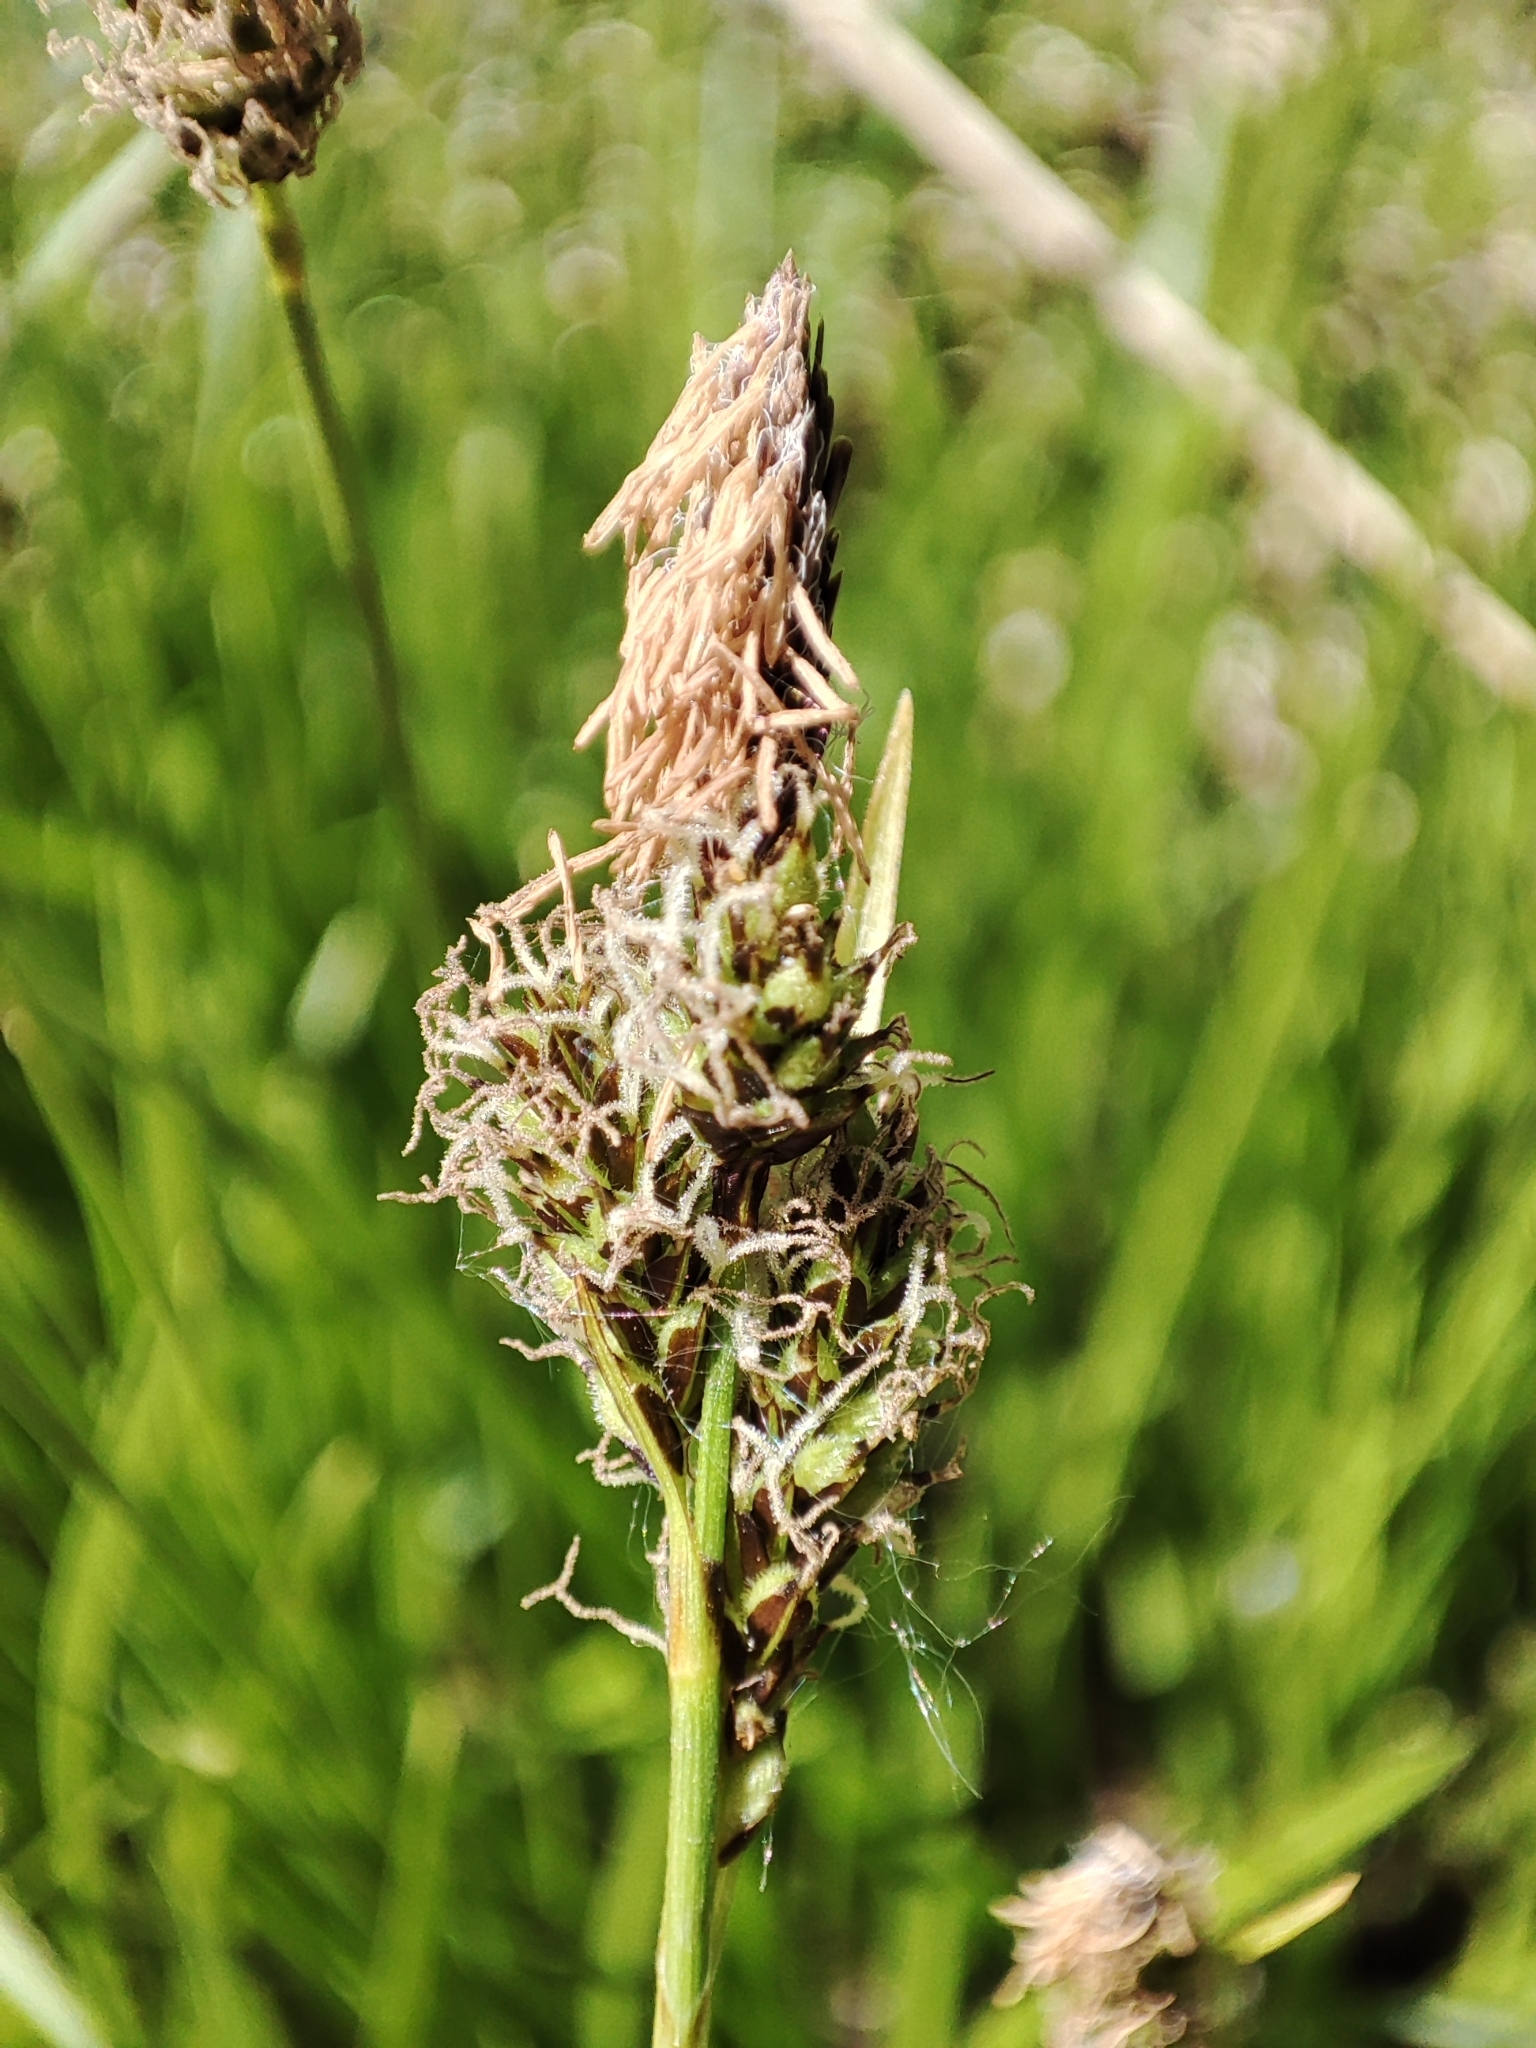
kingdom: Plantae
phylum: Tracheophyta
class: Liliopsida
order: Poales
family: Cyperaceae
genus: Carex
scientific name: Carex caryophyllea
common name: Spring sedge
